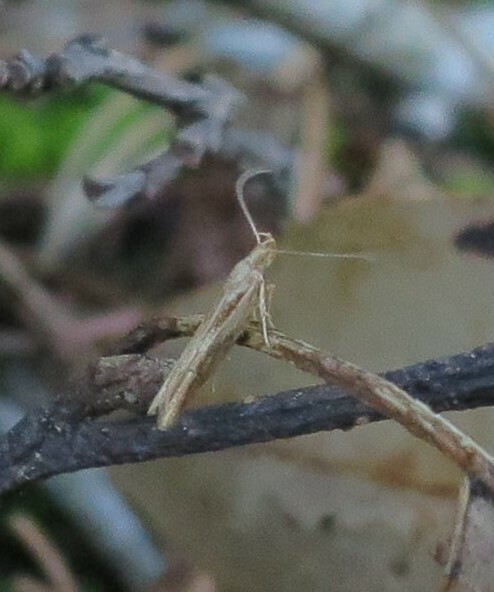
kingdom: Animalia
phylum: Arthropoda
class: Insecta
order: Lepidoptera
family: Depressariidae
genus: Eutorna
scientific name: Eutorna symmorpha
